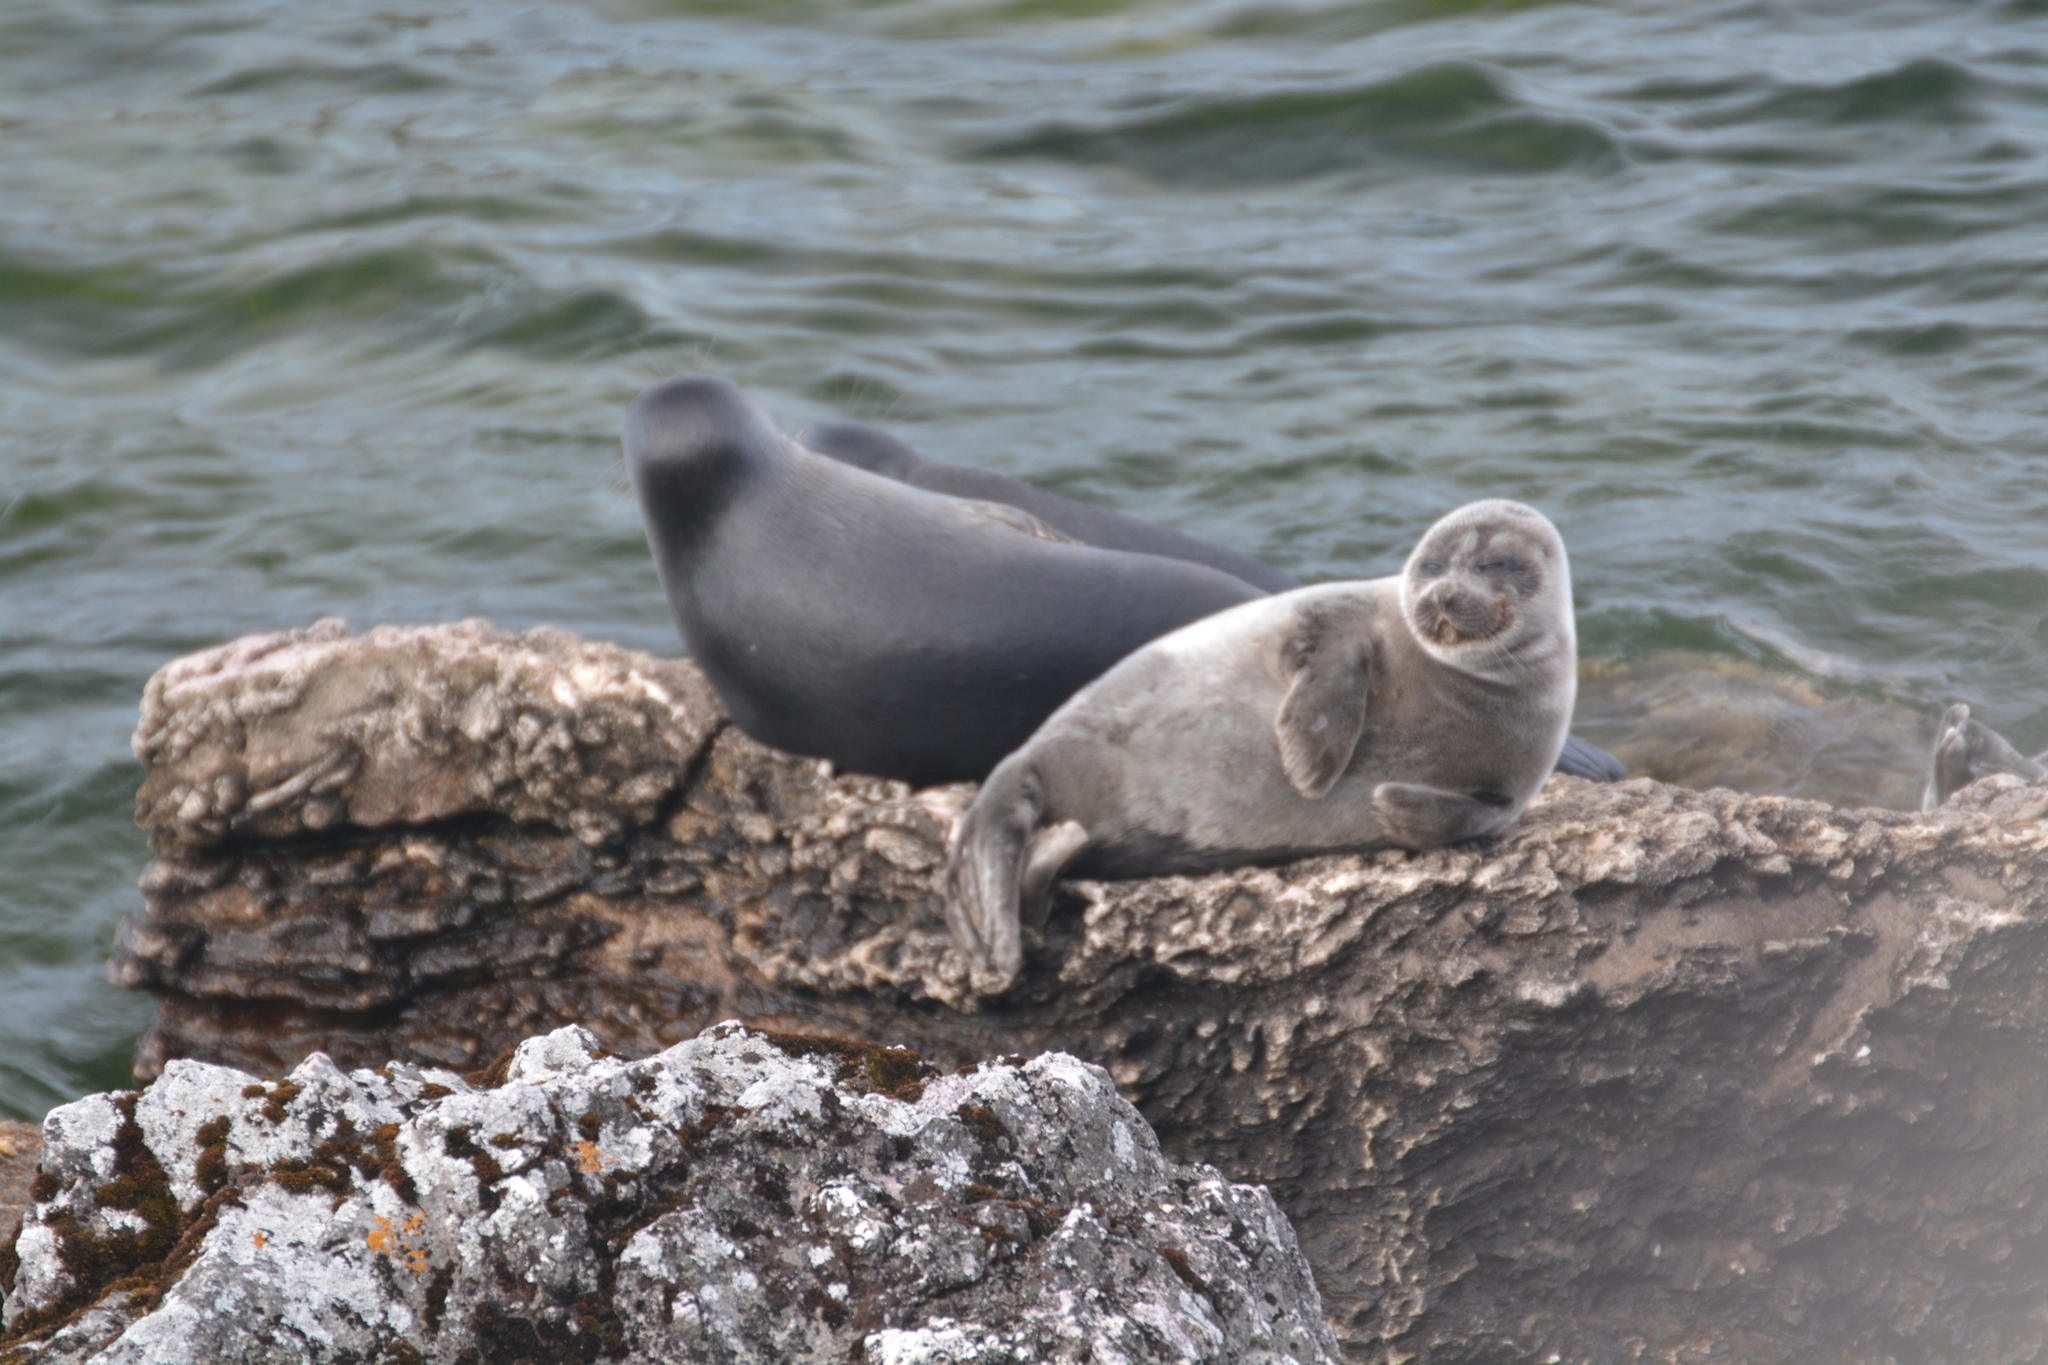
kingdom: Animalia
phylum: Chordata
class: Mammalia
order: Carnivora
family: Phocidae
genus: Pusa
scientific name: Pusa sibirica
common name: Baikal seal
